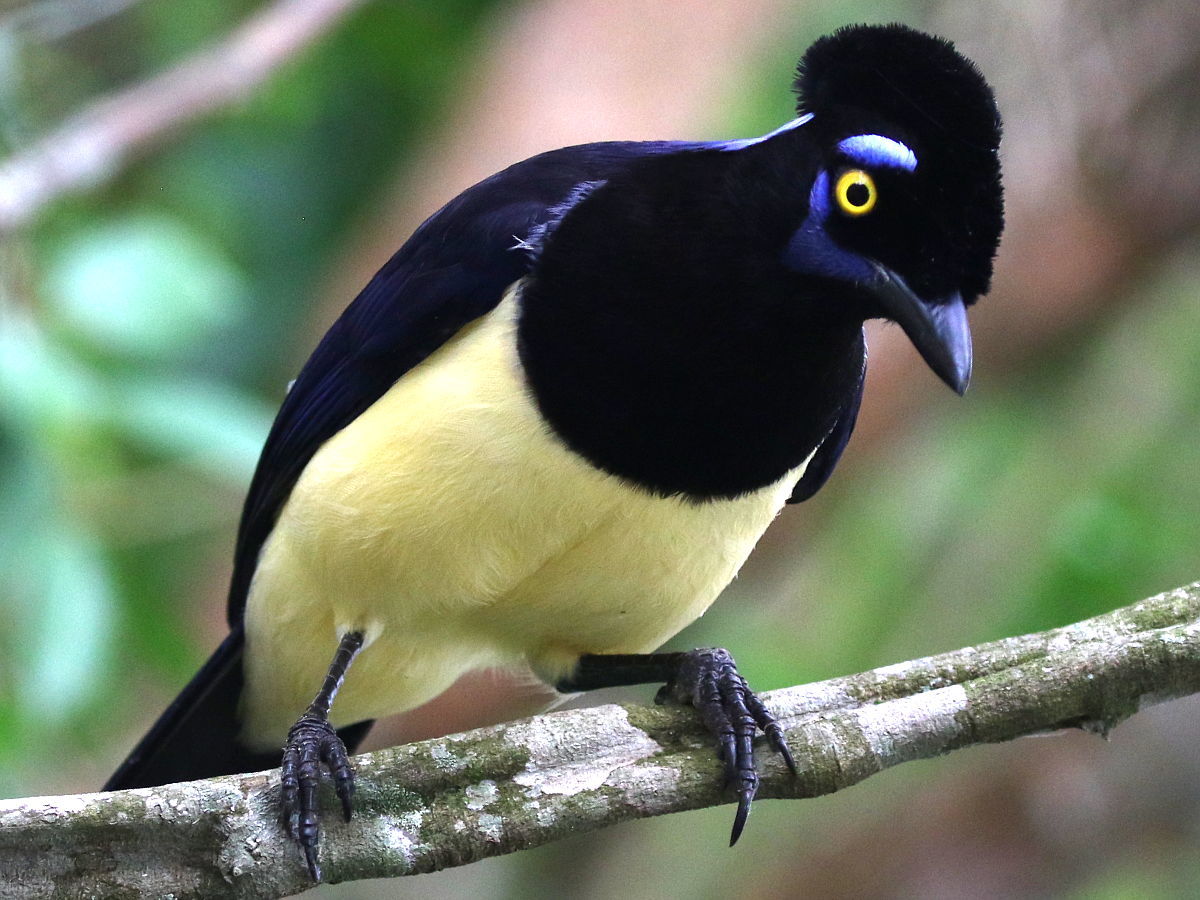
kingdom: Animalia
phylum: Chordata
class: Aves
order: Passeriformes
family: Corvidae
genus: Cyanocorax
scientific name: Cyanocorax chrysops
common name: Plush-crested jay
